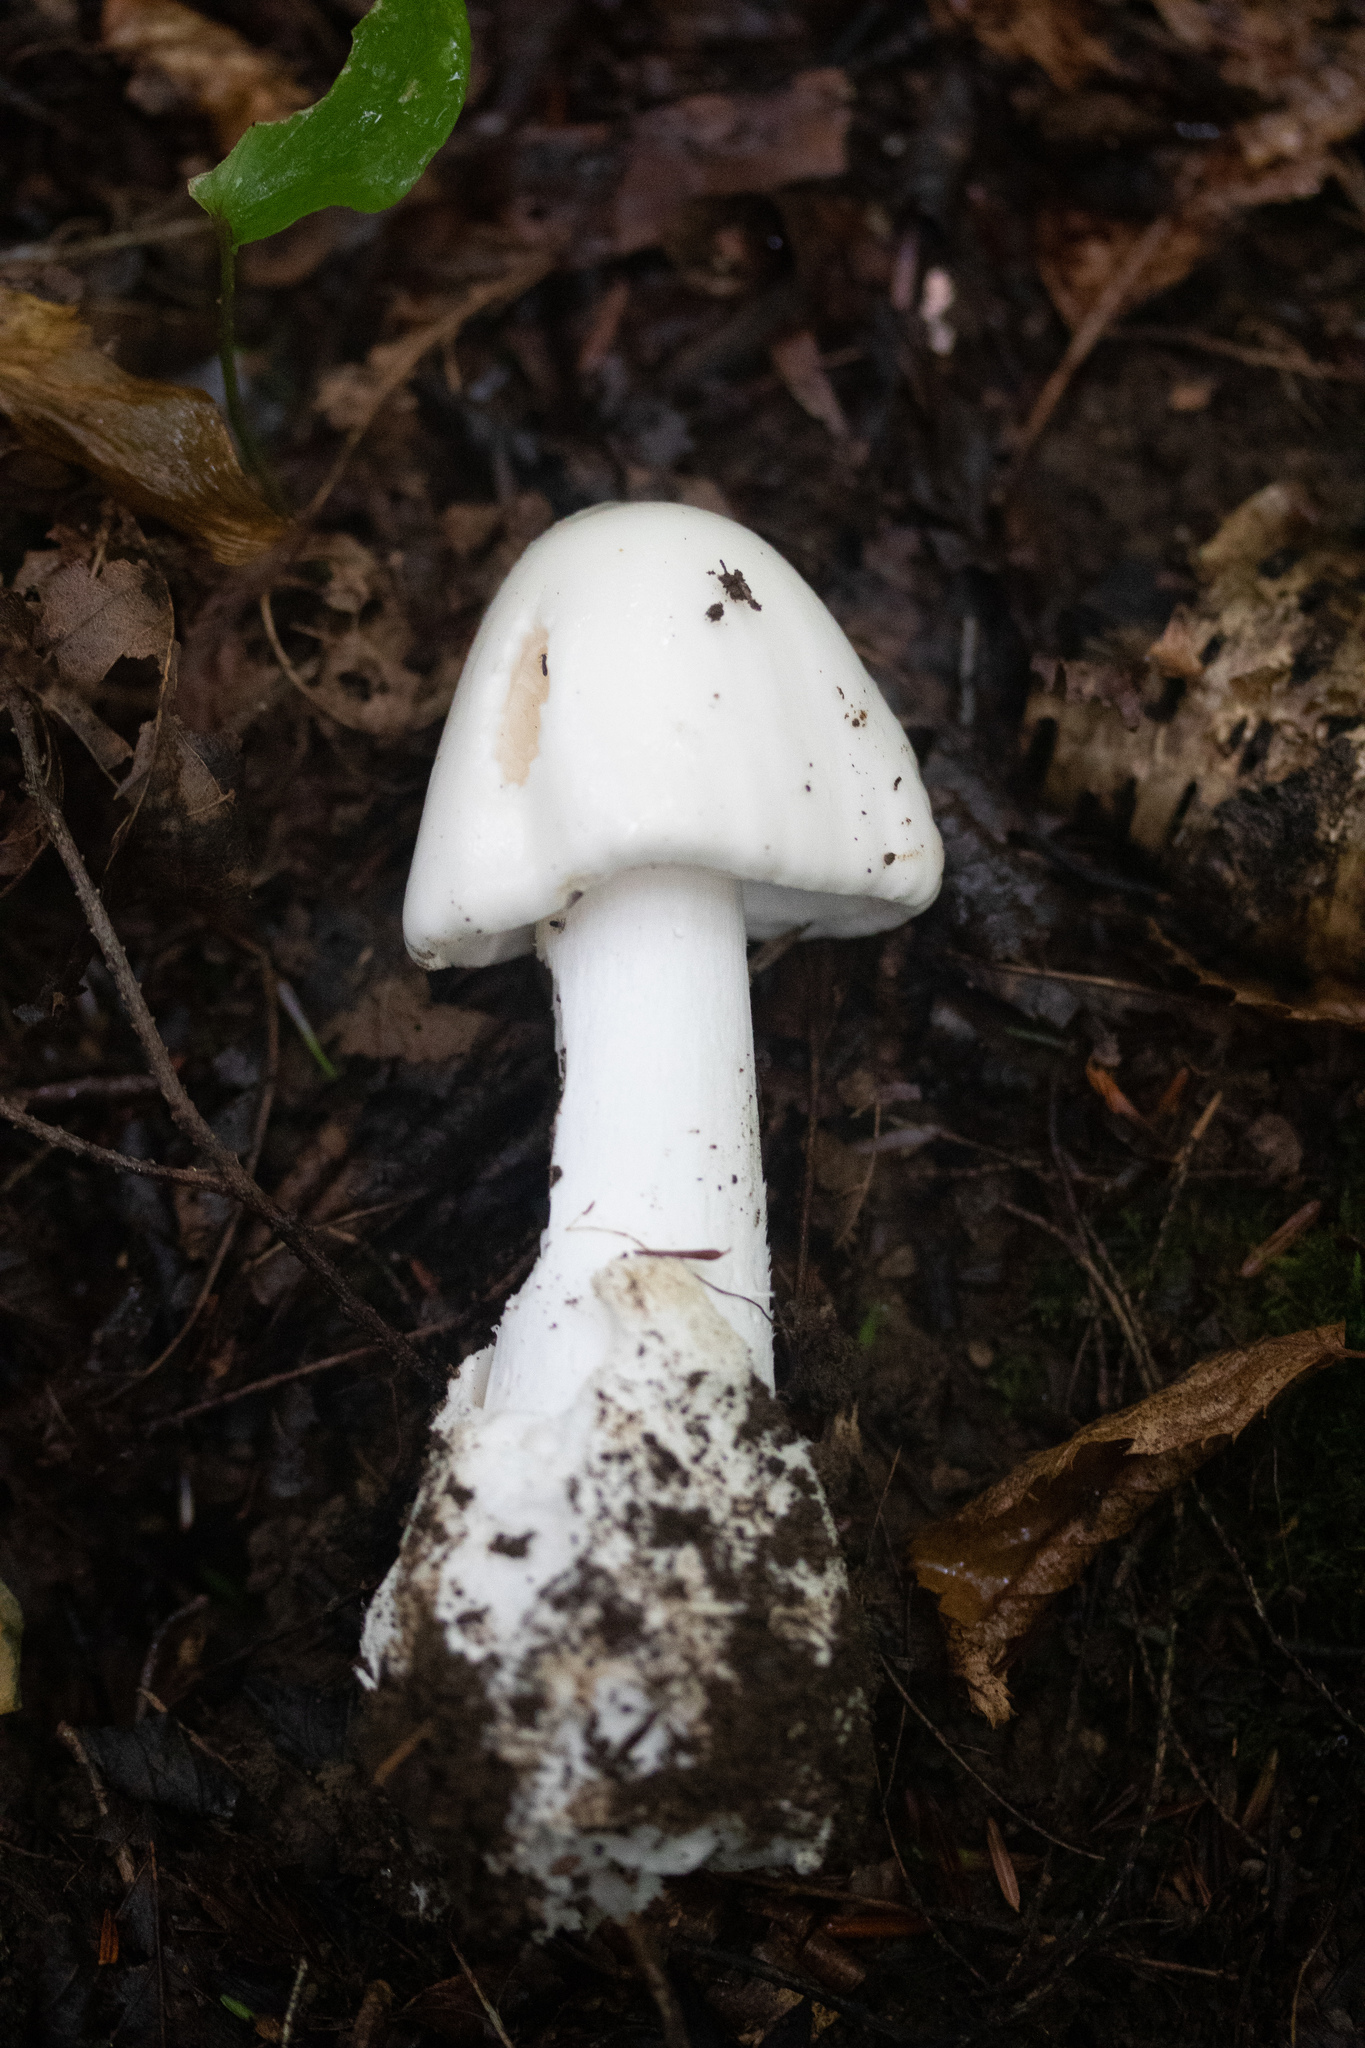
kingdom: Fungi
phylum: Basidiomycota
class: Agaricomycetes
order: Agaricales
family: Amanitaceae
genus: Amanita
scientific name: Amanita bisporigera
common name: Eastern north american destroying angel
